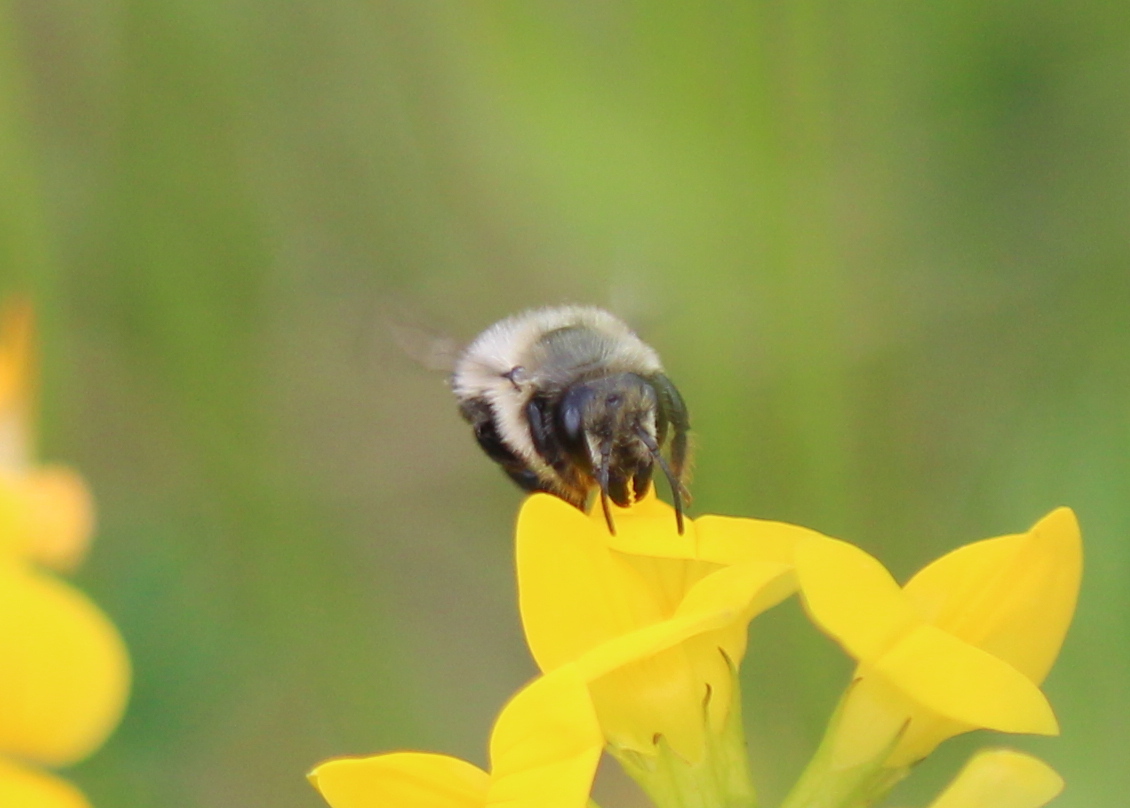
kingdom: Animalia
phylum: Arthropoda
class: Insecta
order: Hymenoptera
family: Apidae
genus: Bombus
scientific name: Bombus impatiens
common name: Common eastern bumble bee
